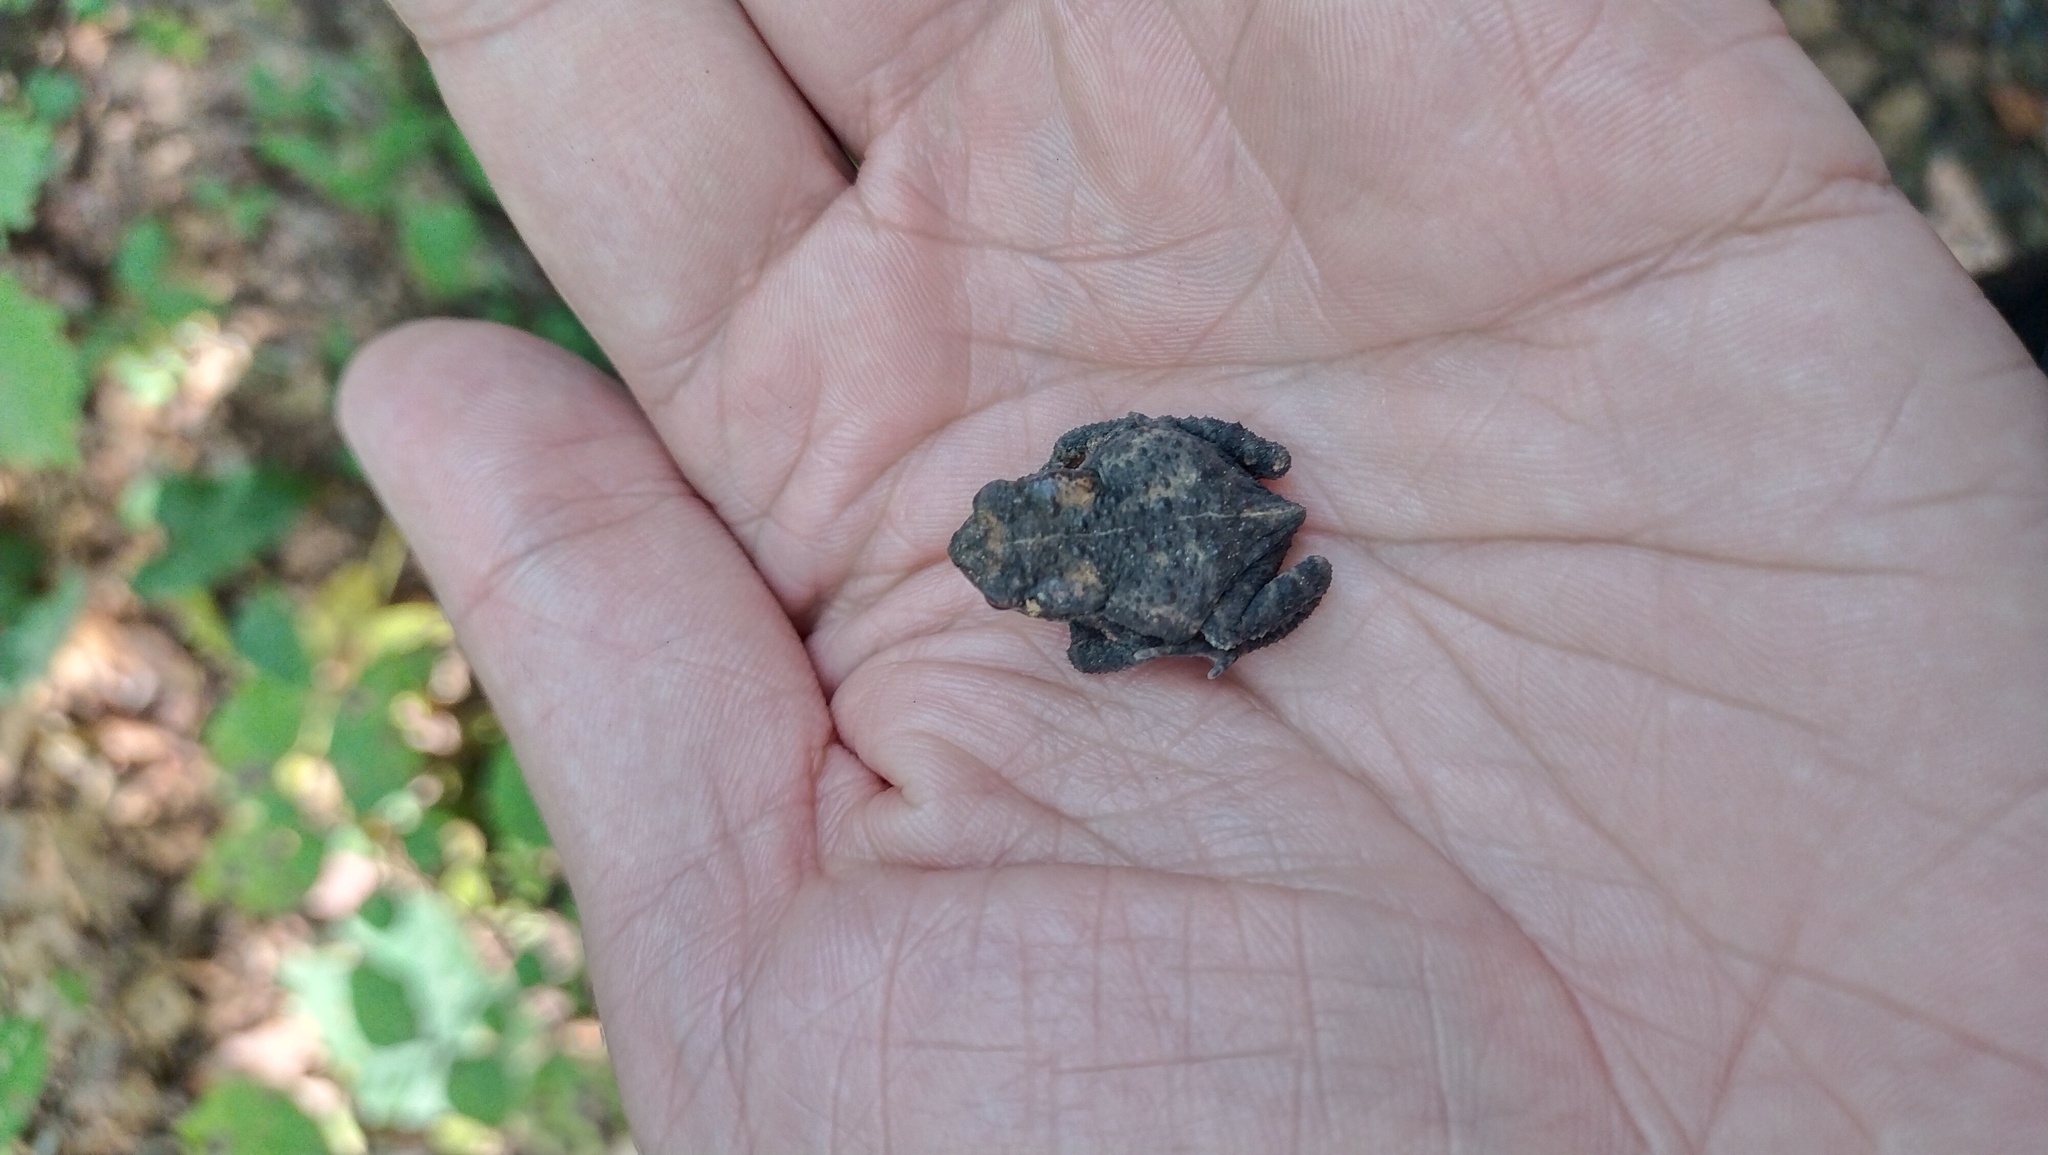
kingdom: Animalia
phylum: Chordata
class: Amphibia
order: Anura
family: Bufonidae
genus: Bufo
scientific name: Bufo gargarizans
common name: Asiatic toad
